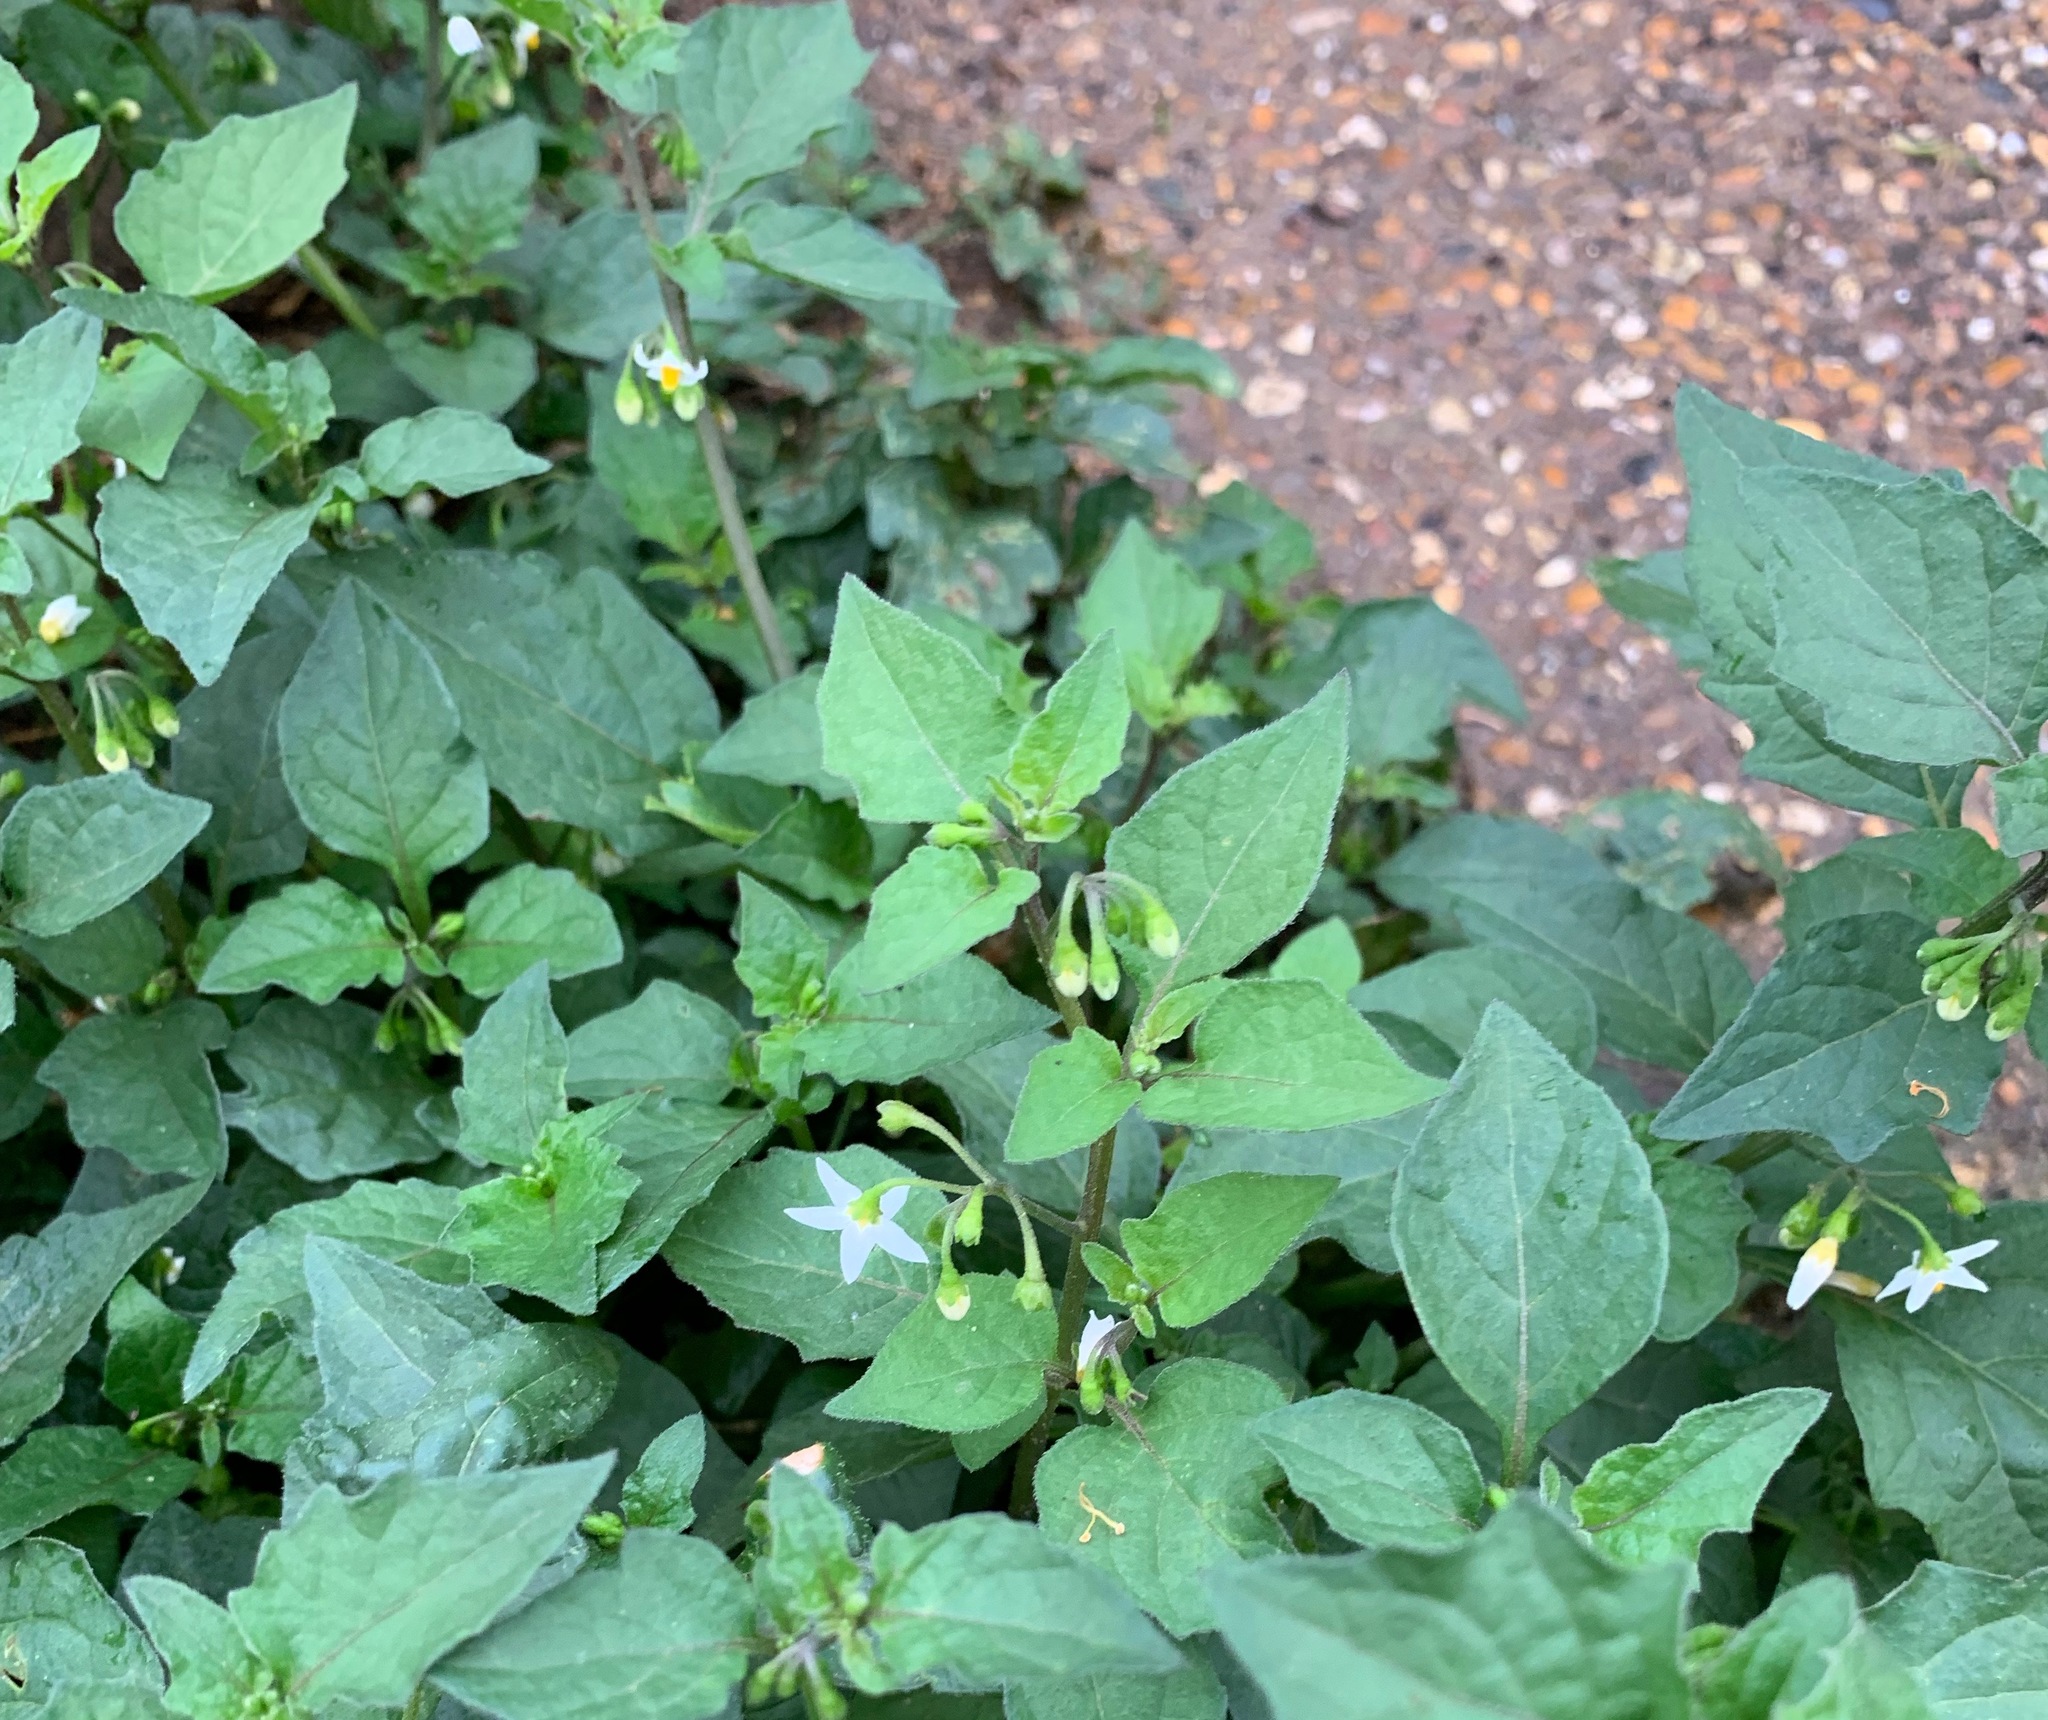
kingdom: Plantae
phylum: Tracheophyta
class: Magnoliopsida
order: Solanales
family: Solanaceae
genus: Solanum
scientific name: Solanum nigrum
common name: Black nightshade
